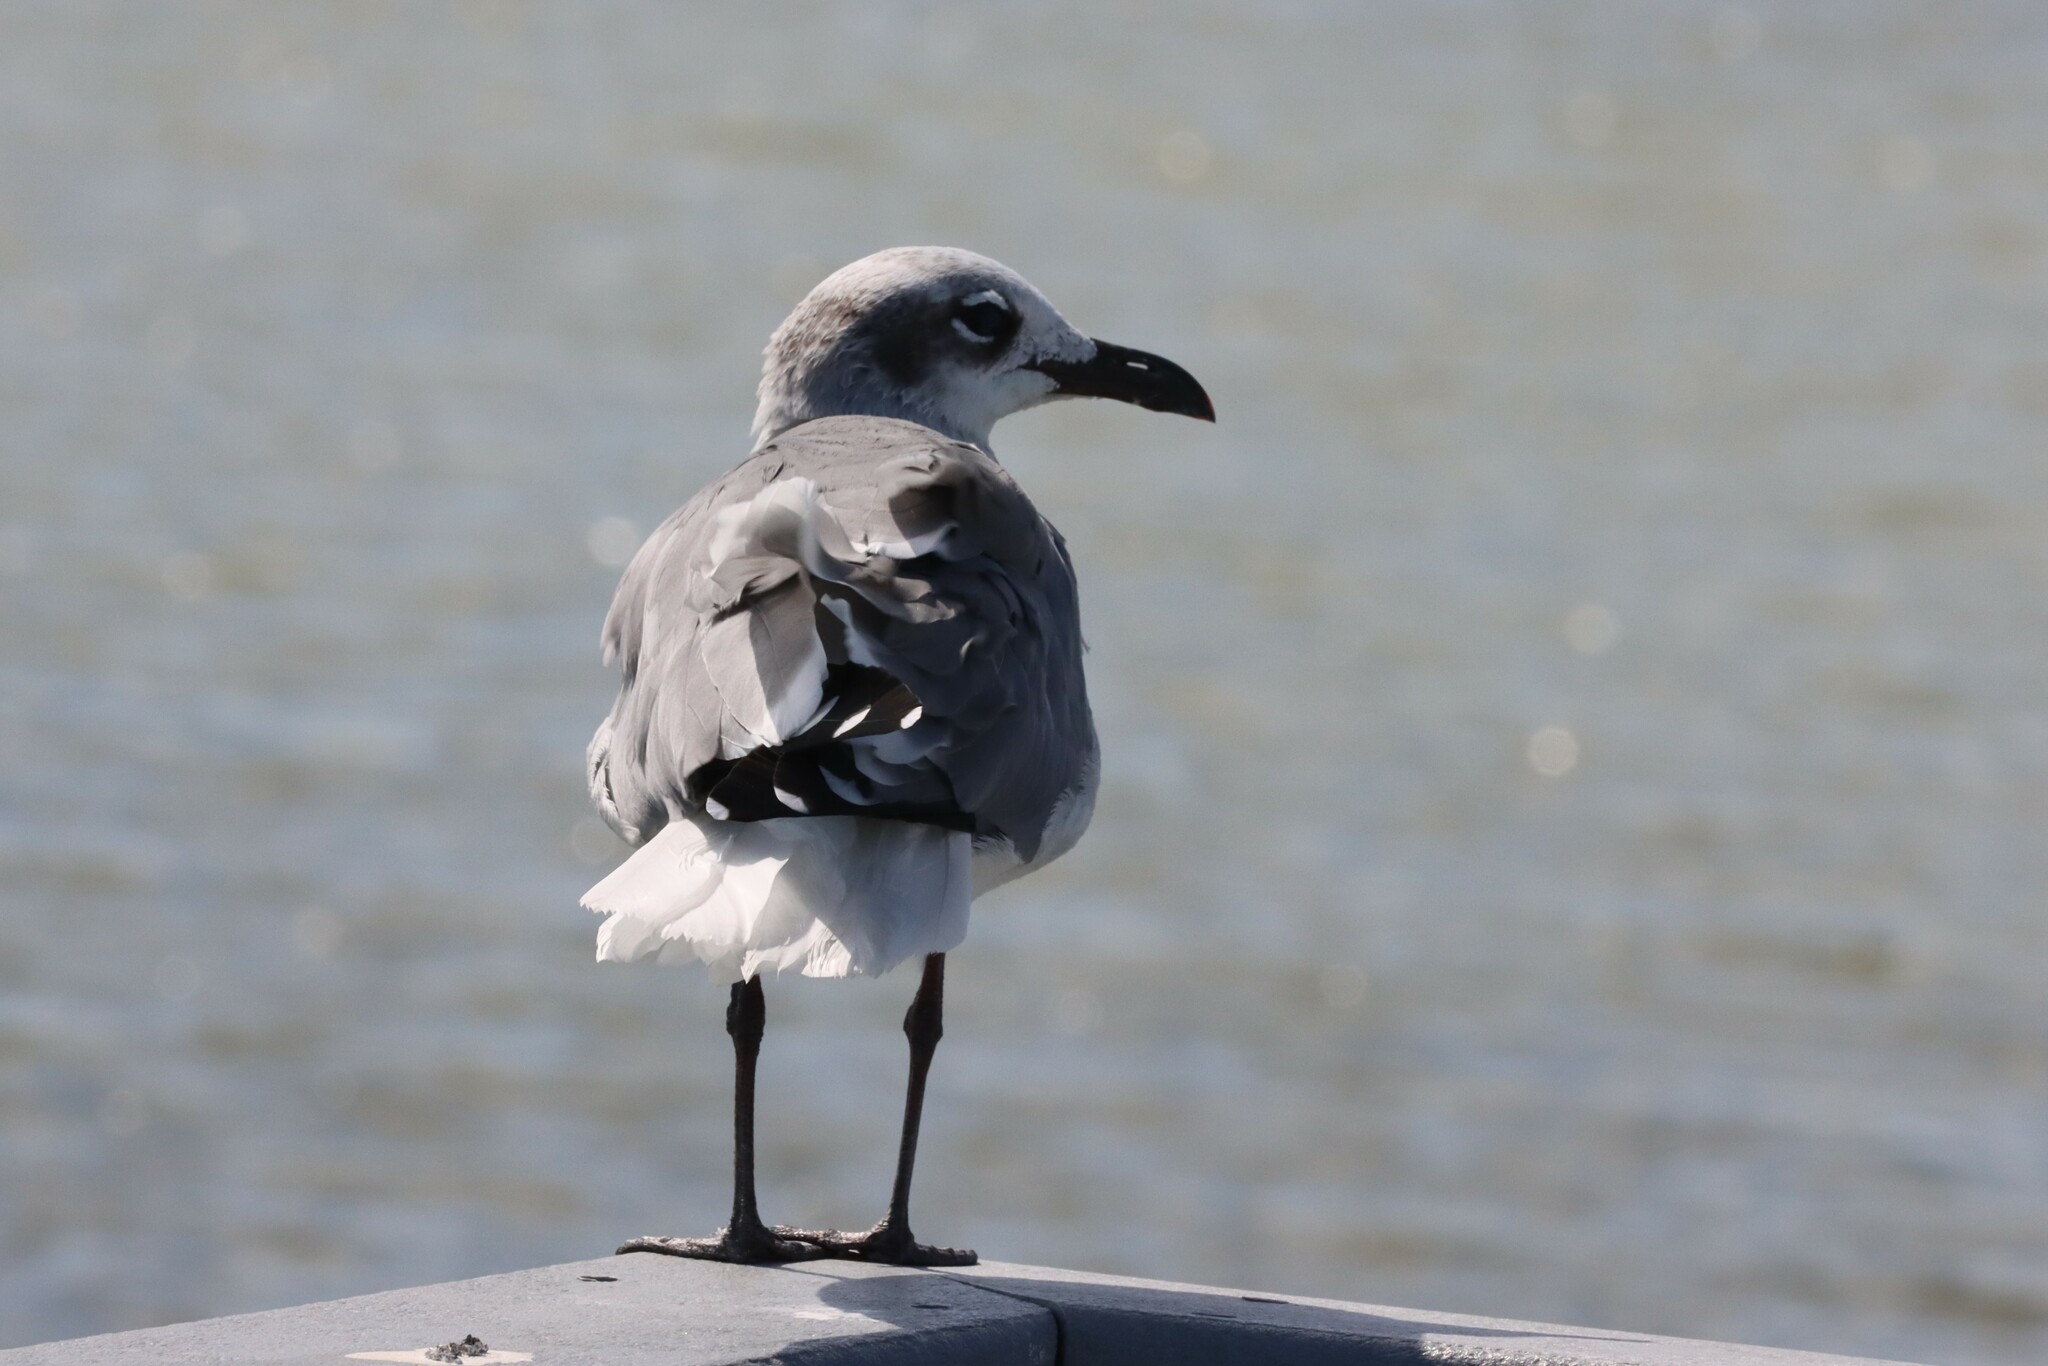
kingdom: Animalia
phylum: Chordata
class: Aves
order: Charadriiformes
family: Laridae
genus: Leucophaeus
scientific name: Leucophaeus atricilla
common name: Laughing gull
